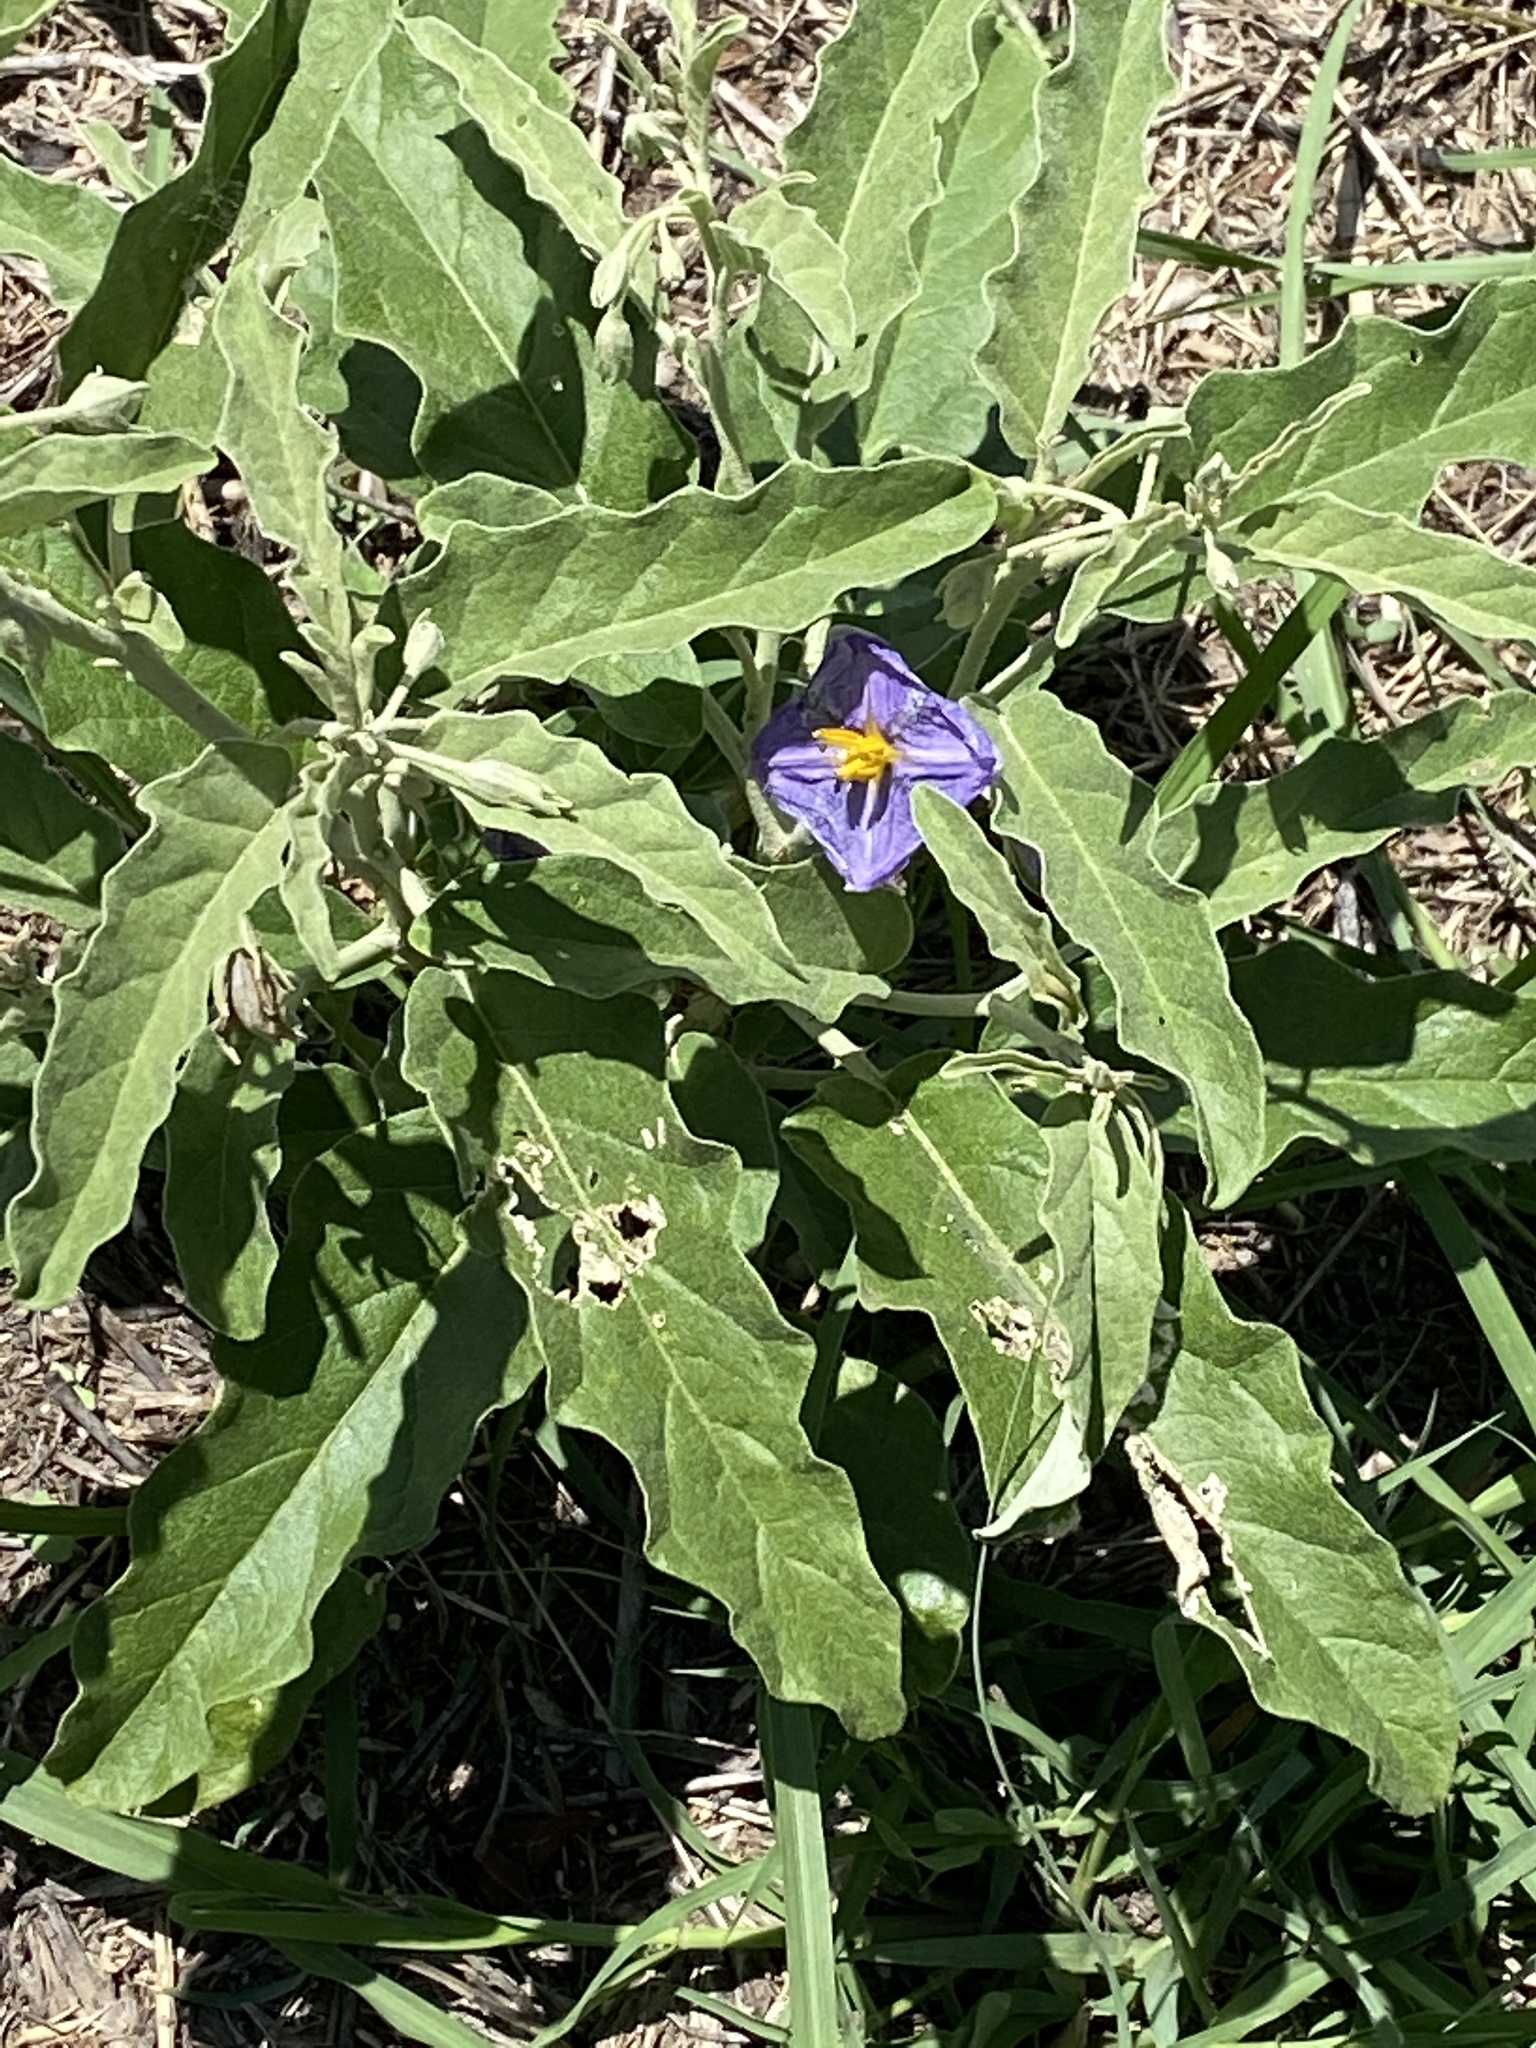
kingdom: Plantae
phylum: Tracheophyta
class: Magnoliopsida
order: Solanales
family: Solanaceae
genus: Solanum
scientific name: Solanum elaeagnifolium
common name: Silverleaf nightshade
